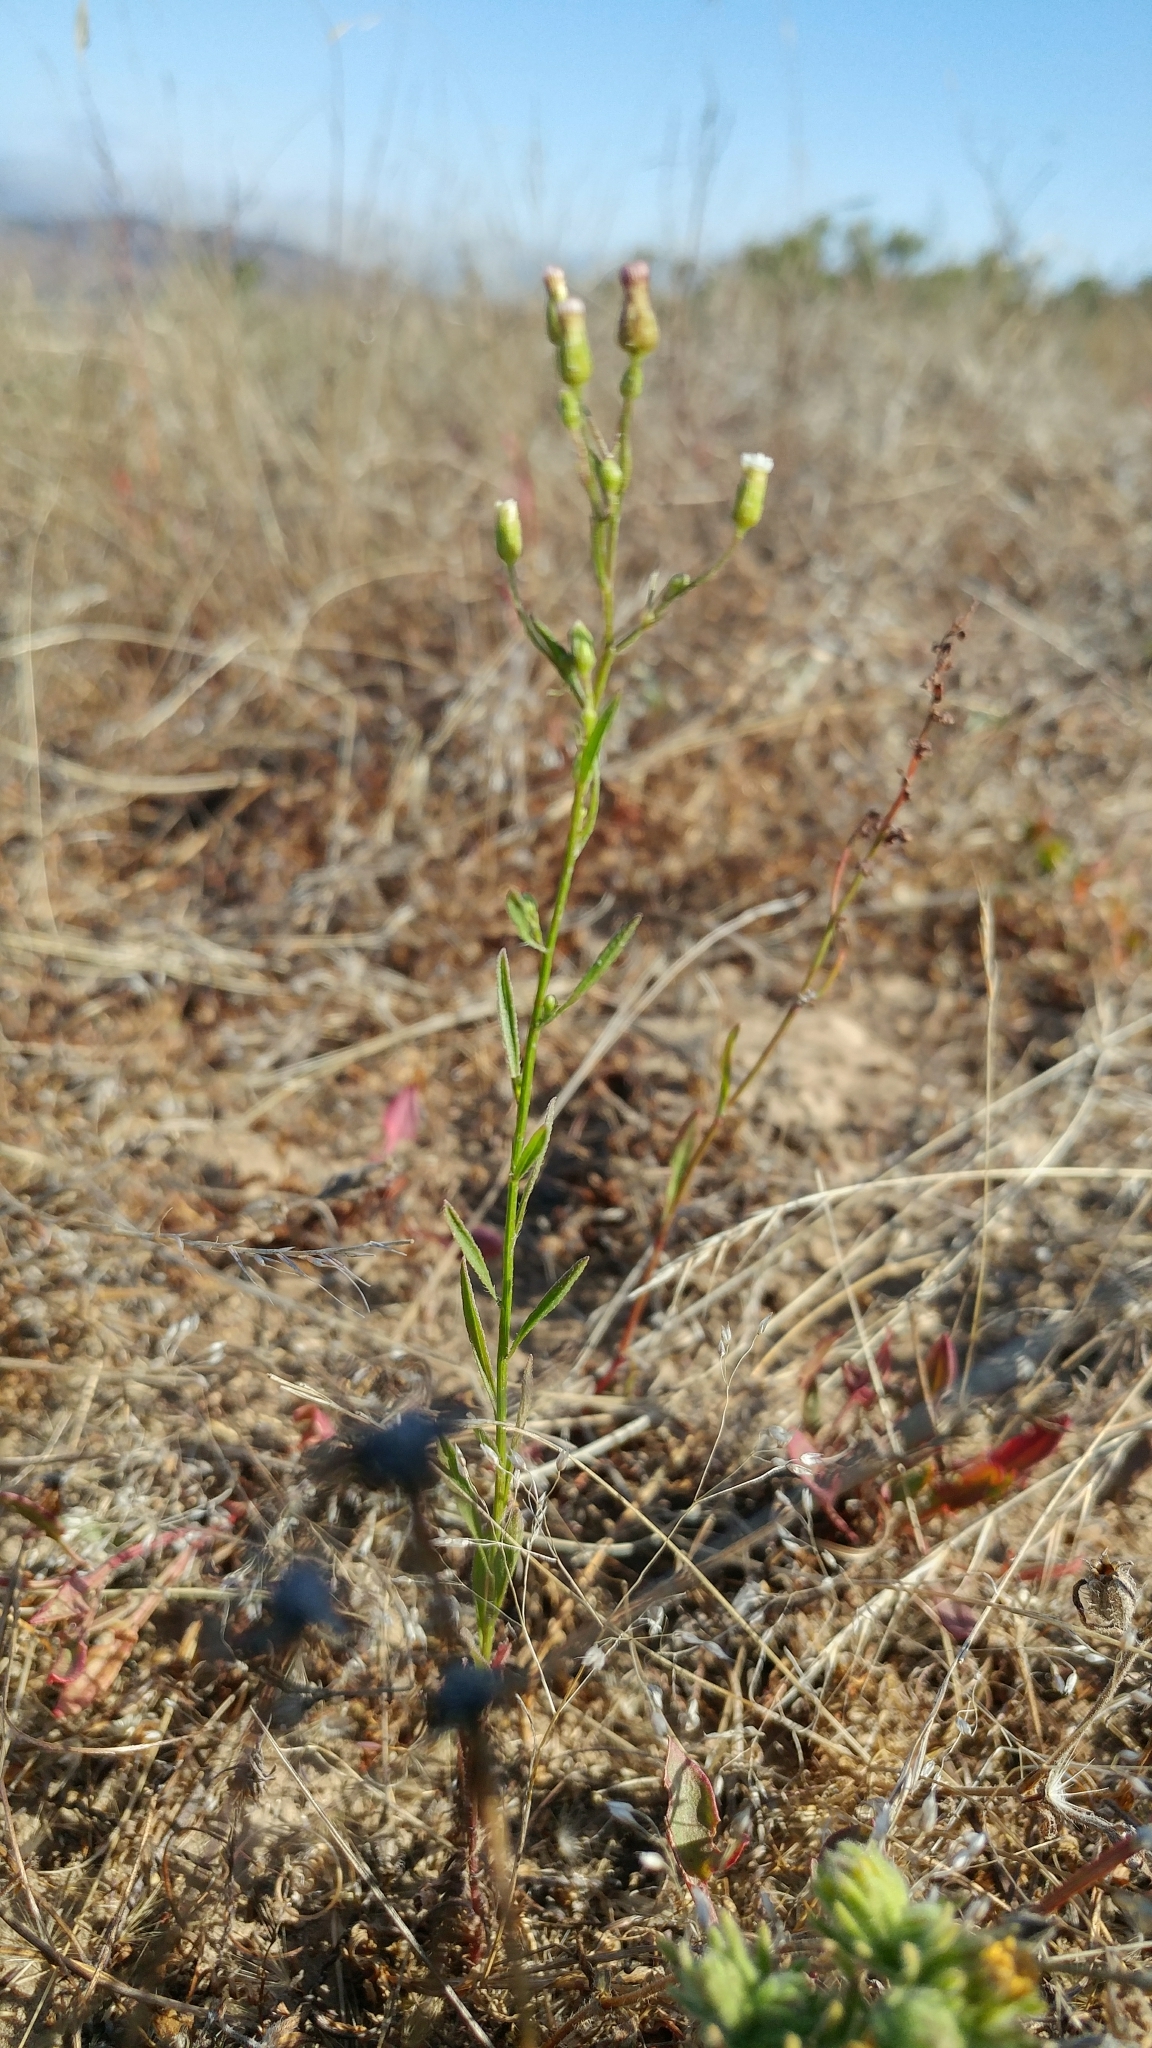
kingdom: Plantae
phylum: Tracheophyta
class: Magnoliopsida
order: Asterales
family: Asteraceae
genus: Erigeron
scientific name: Erigeron canadensis
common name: Canadian fleabane
